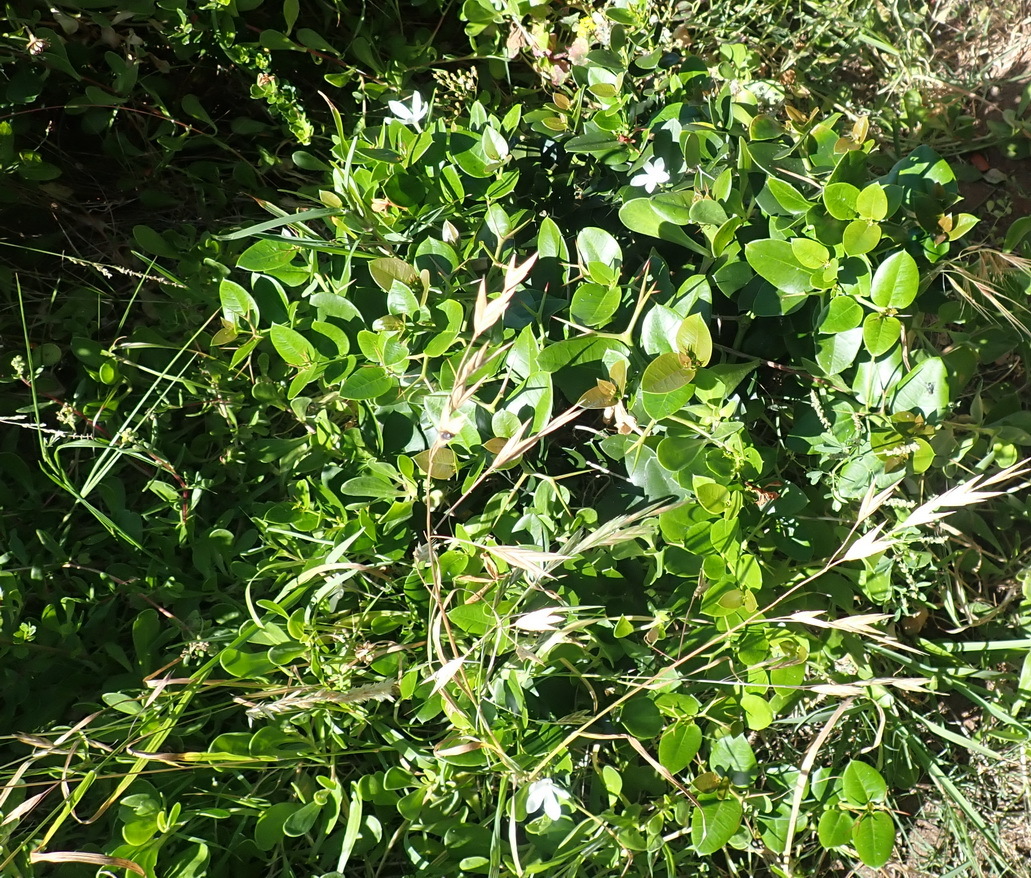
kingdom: Plantae
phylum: Tracheophyta
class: Magnoliopsida
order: Gentianales
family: Apocynaceae
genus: Carissa
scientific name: Carissa macrocarpa
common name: Natal plum
